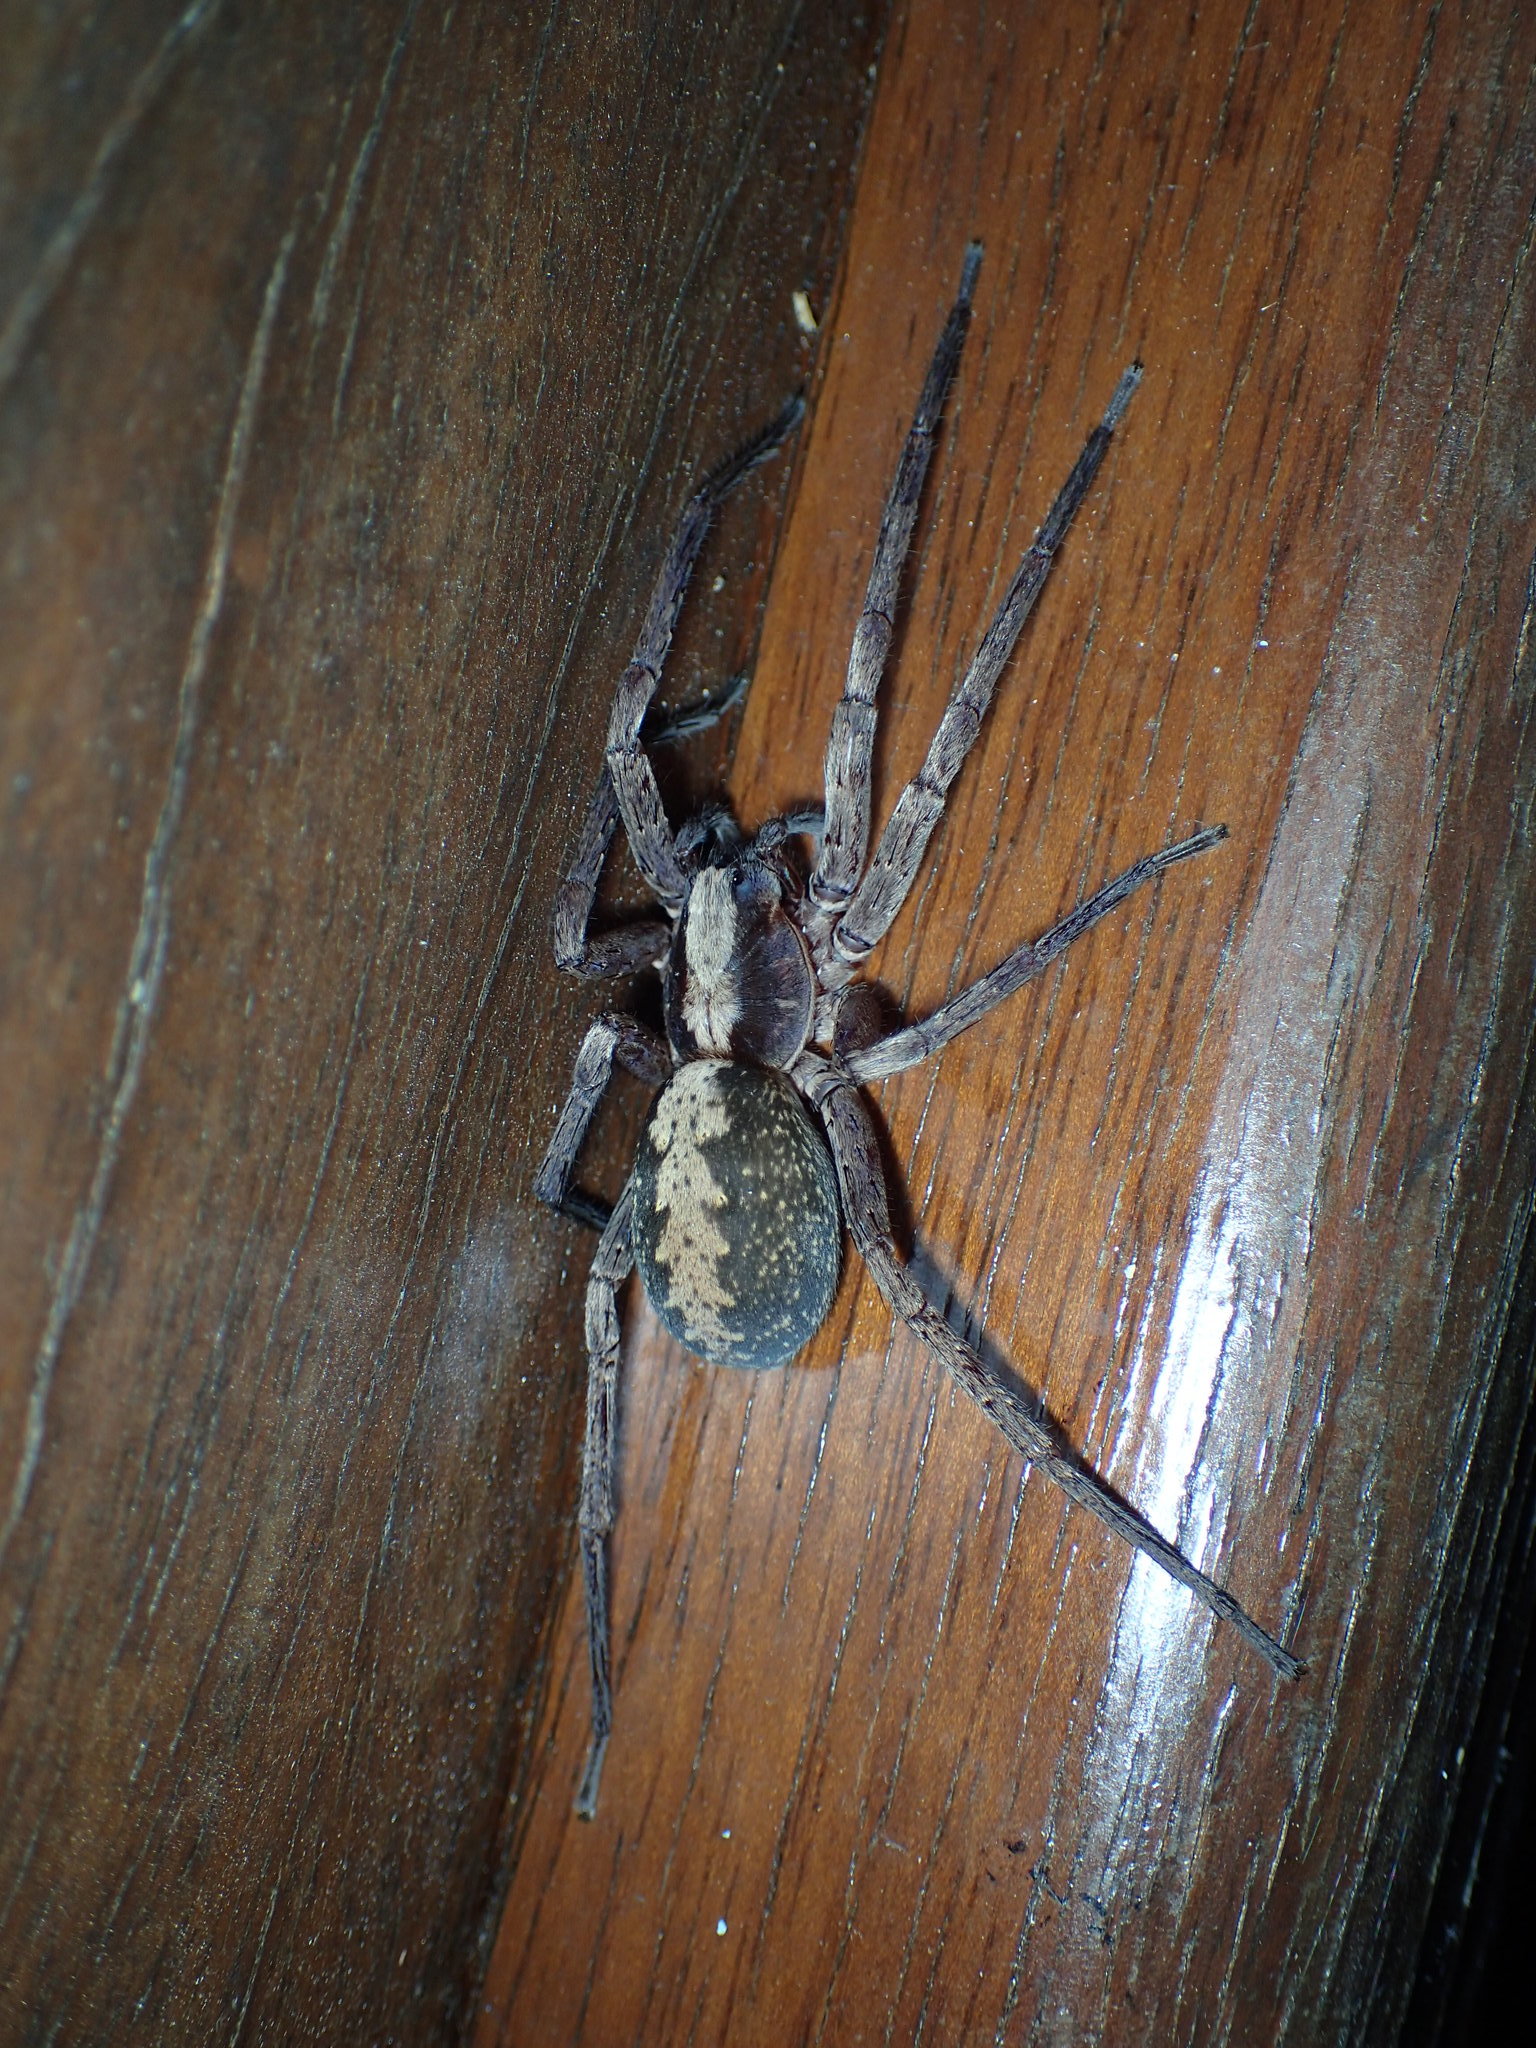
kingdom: Animalia
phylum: Arthropoda
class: Arachnida
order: Araneae
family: Ctenidae
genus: Ctenus
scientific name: Ctenus hibernalis
